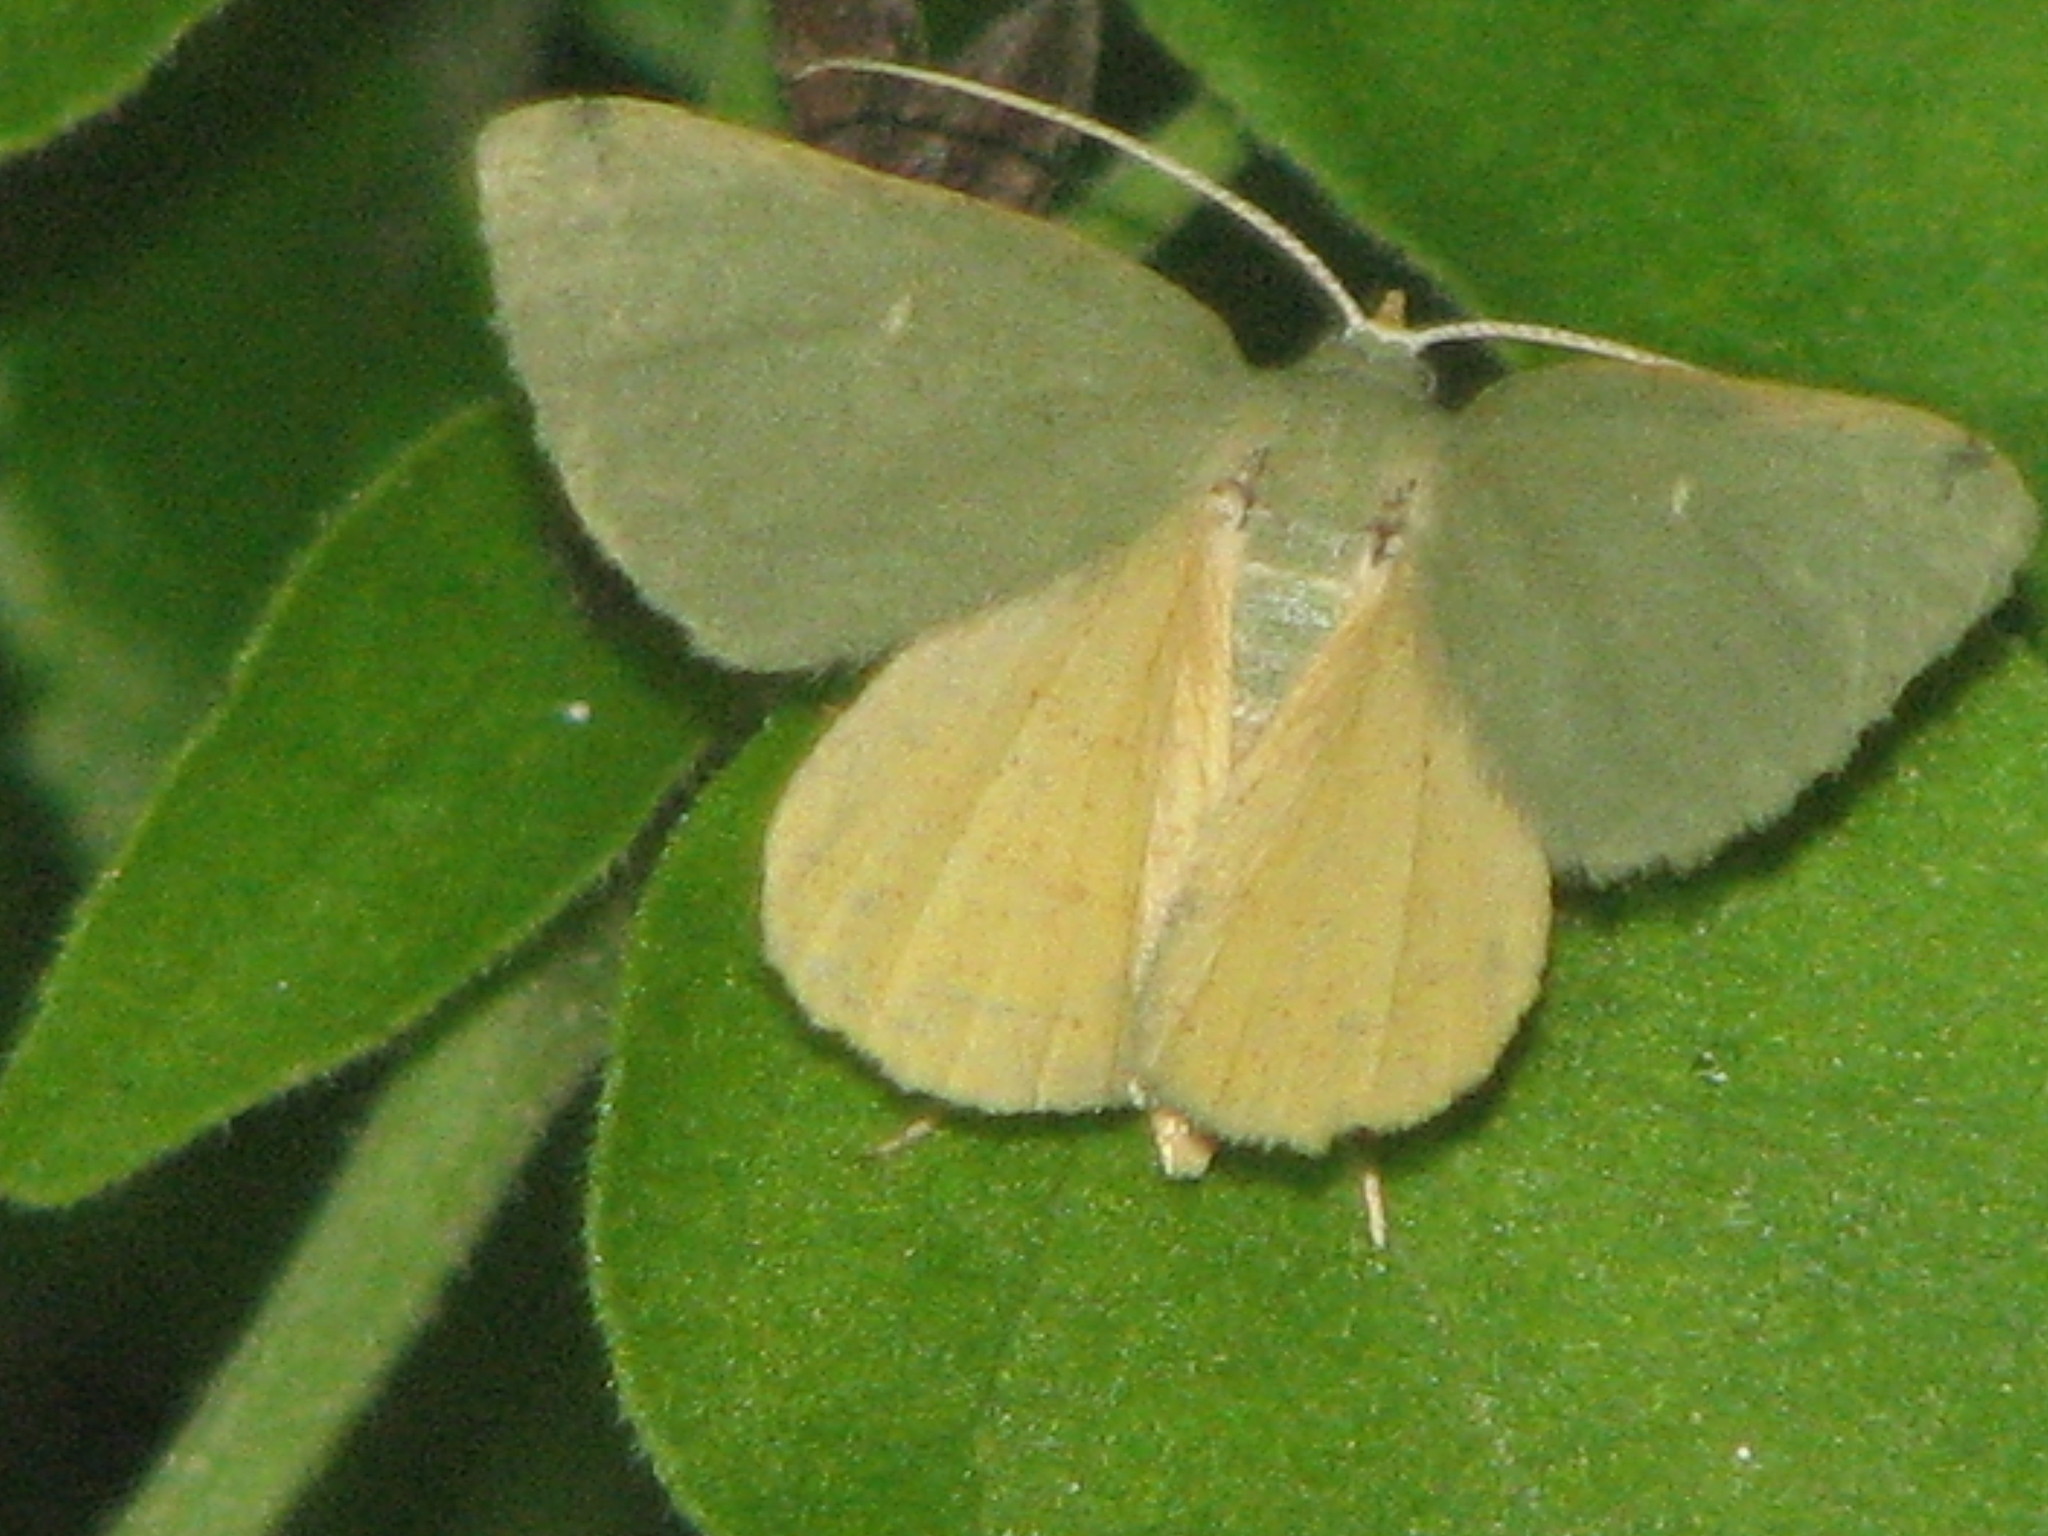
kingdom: Animalia
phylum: Arthropoda
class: Insecta
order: Lepidoptera
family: Geometridae
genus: Chloraspilates
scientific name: Chloraspilates bicoloraria
